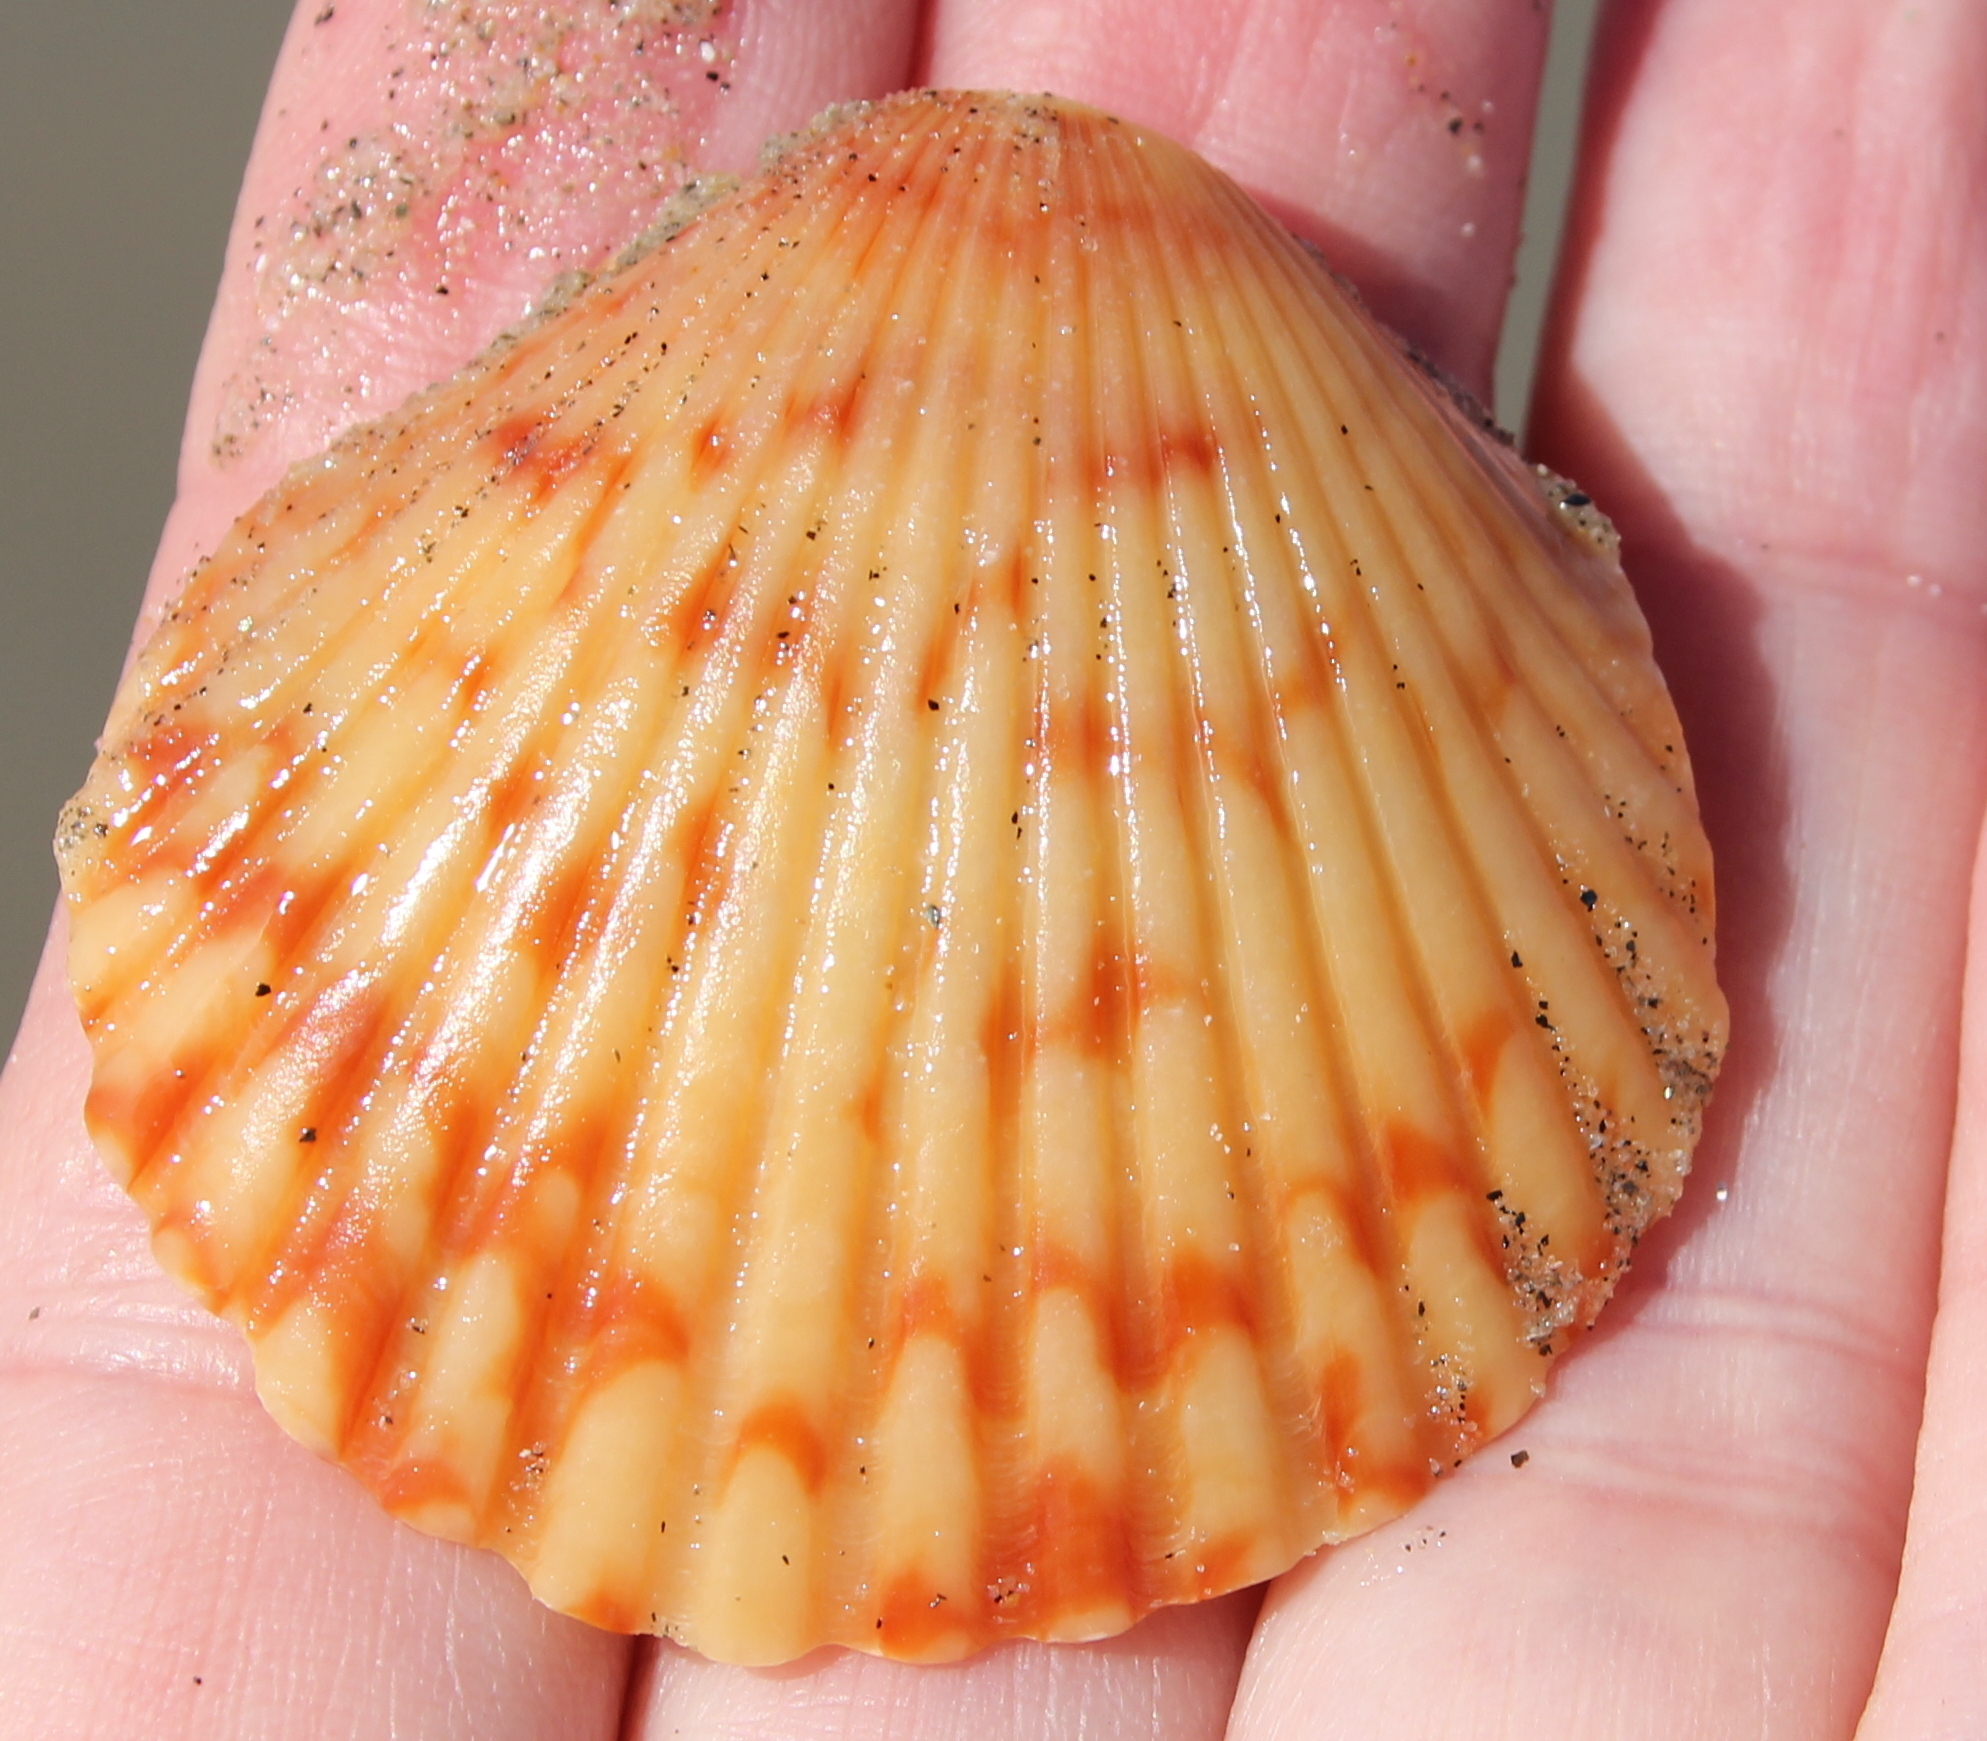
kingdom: Animalia
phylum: Mollusca
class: Bivalvia
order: Pectinida
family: Pectinidae
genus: Argopecten
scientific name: Argopecten ventricosus
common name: Catarina scallop
